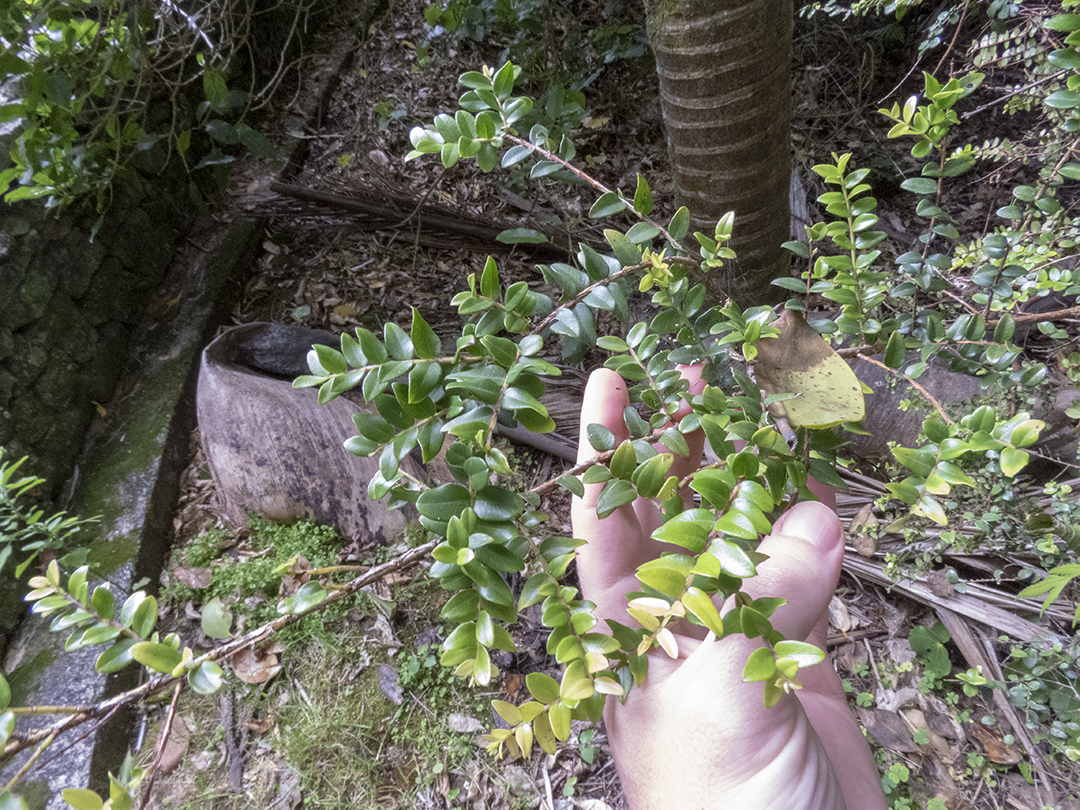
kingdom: Plantae
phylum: Tracheophyta
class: Magnoliopsida
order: Myrtales
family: Myrtaceae
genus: Metrosideros
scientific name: Metrosideros diffusa
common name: Small ratavine
